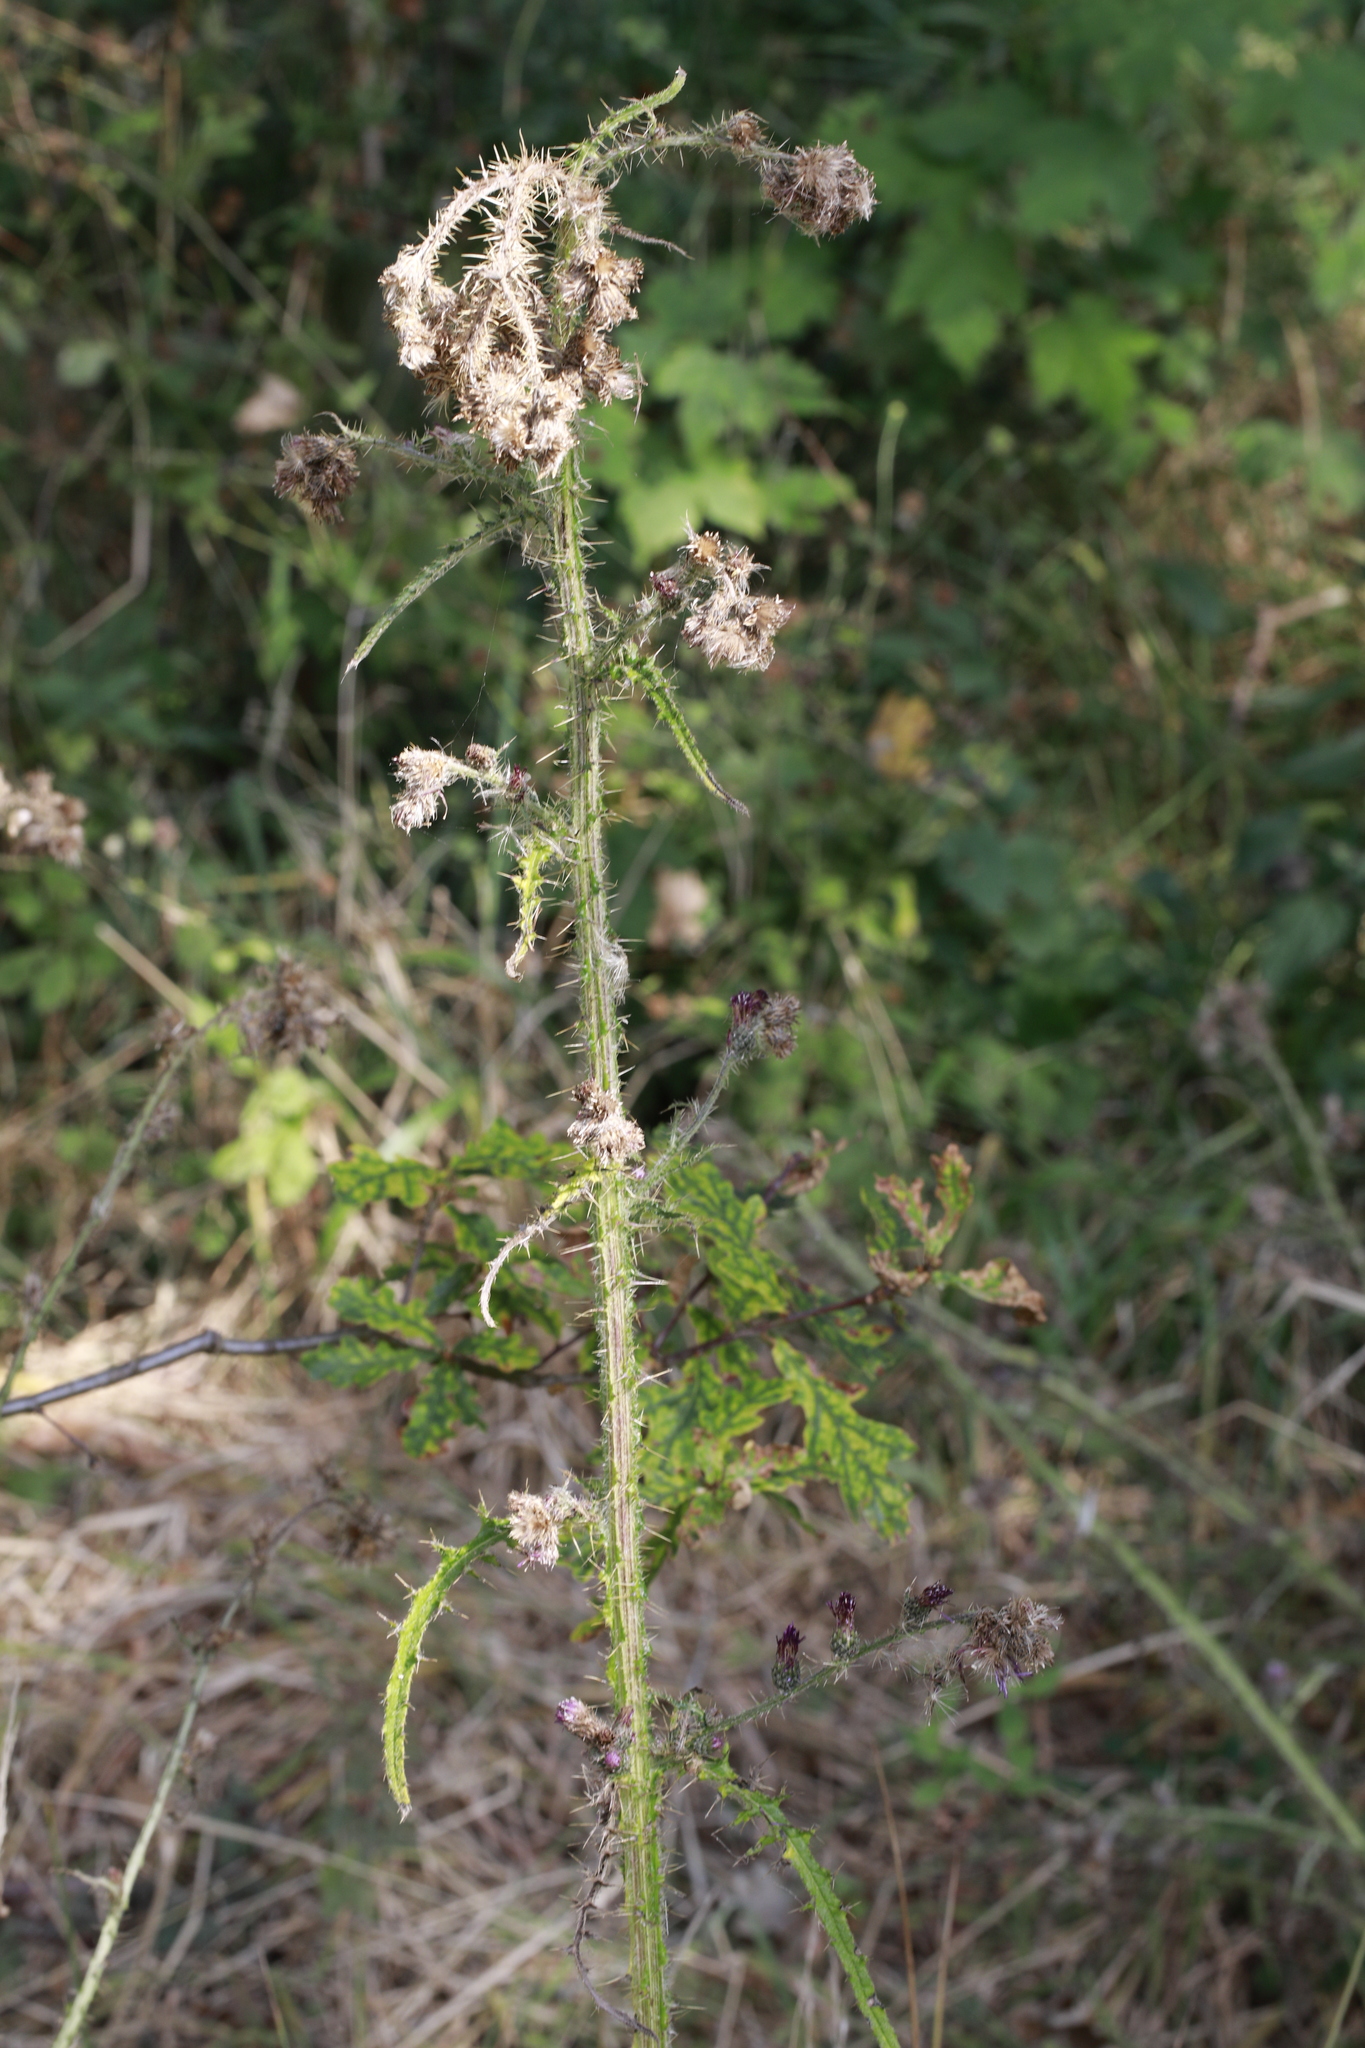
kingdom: Plantae
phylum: Tracheophyta
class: Magnoliopsida
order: Asterales
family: Asteraceae
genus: Cirsium
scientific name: Cirsium palustre
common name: Marsh thistle
